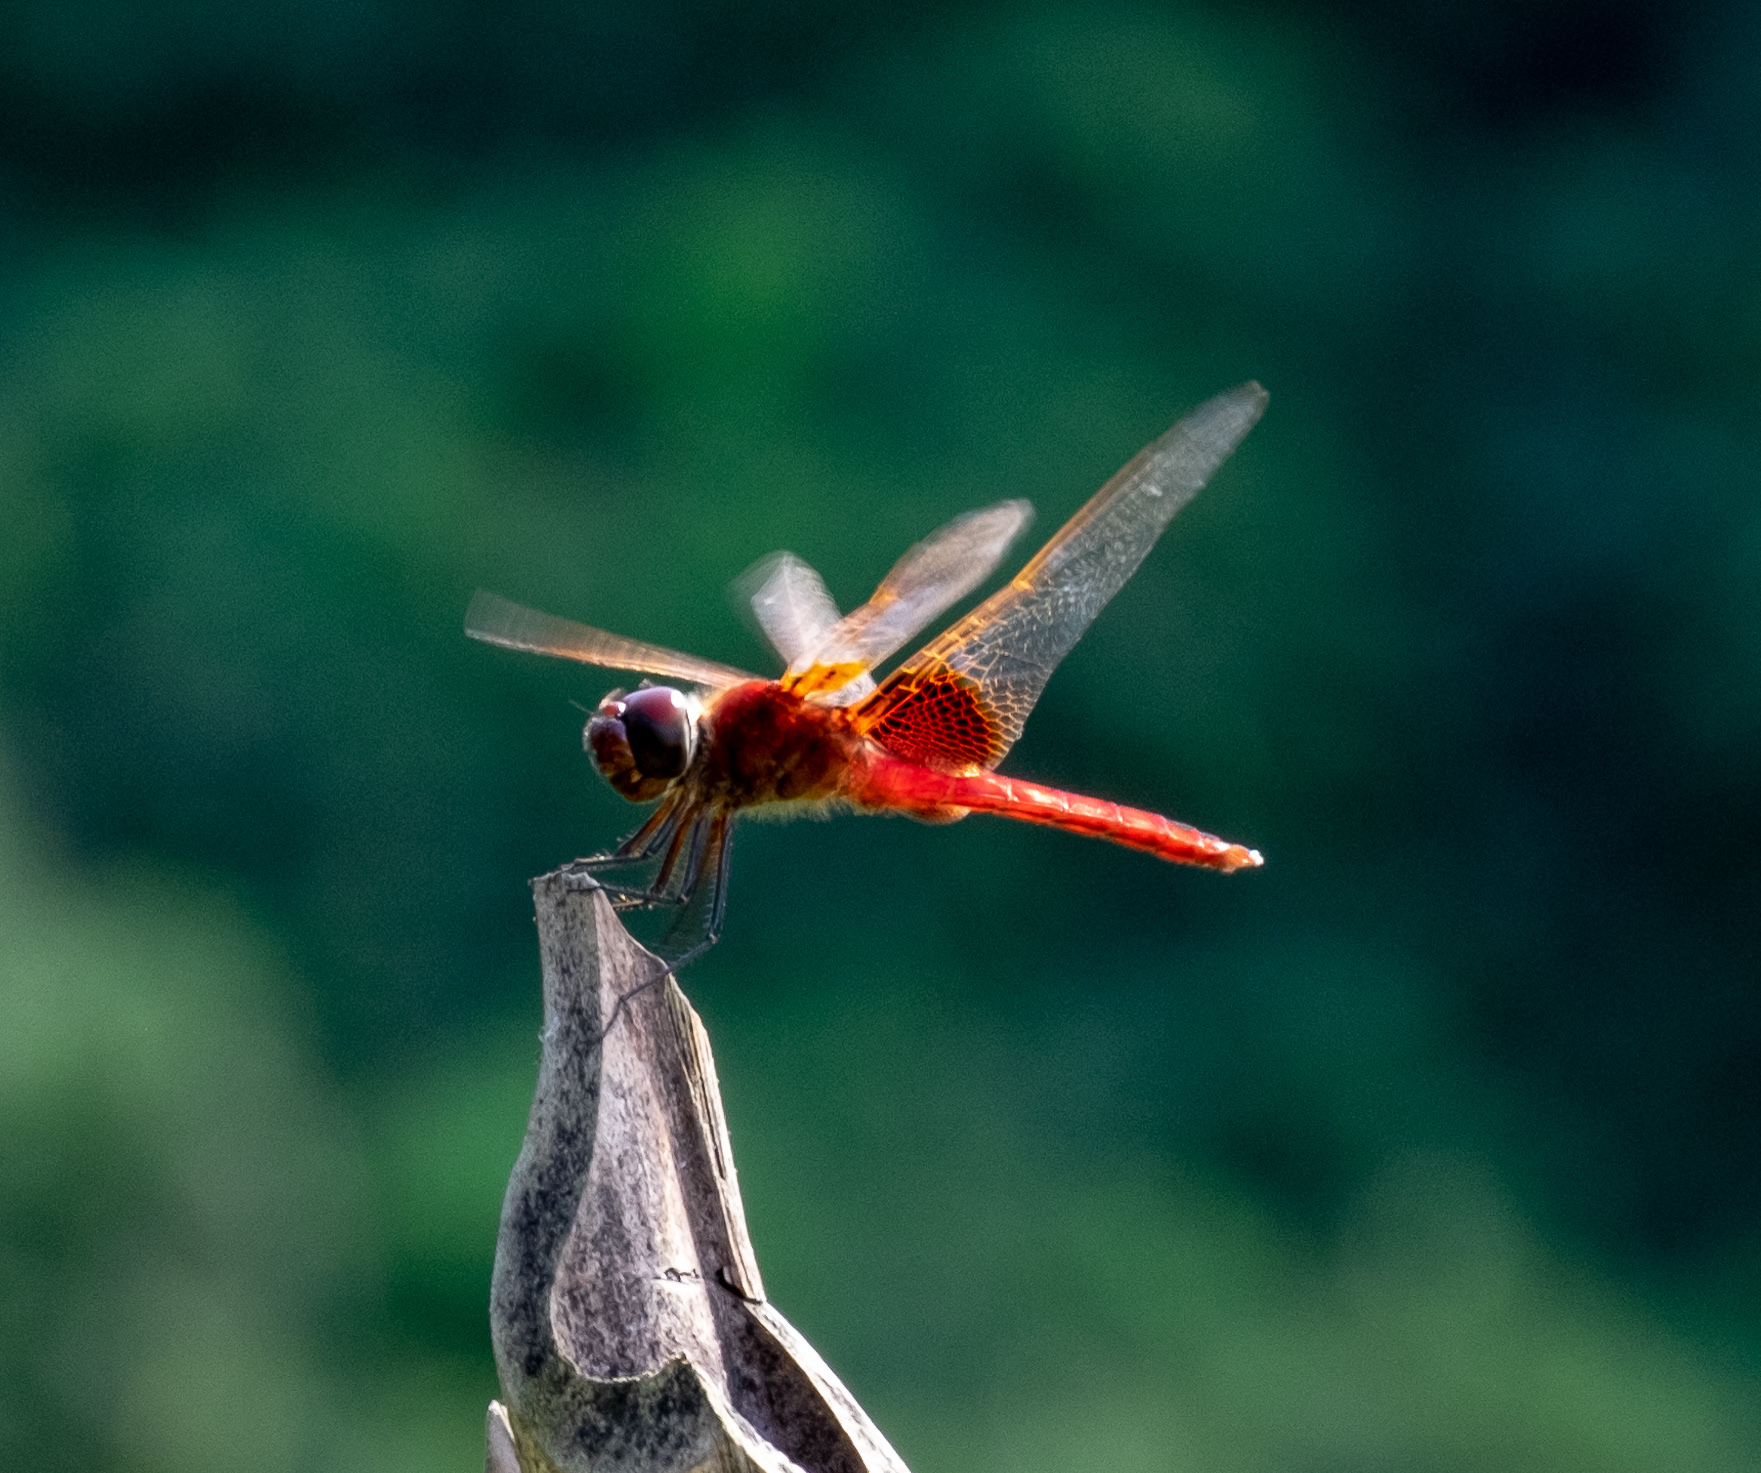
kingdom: Animalia
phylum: Arthropoda
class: Insecta
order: Odonata
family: Libellulidae
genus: Urothemis
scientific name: Urothemis signata
